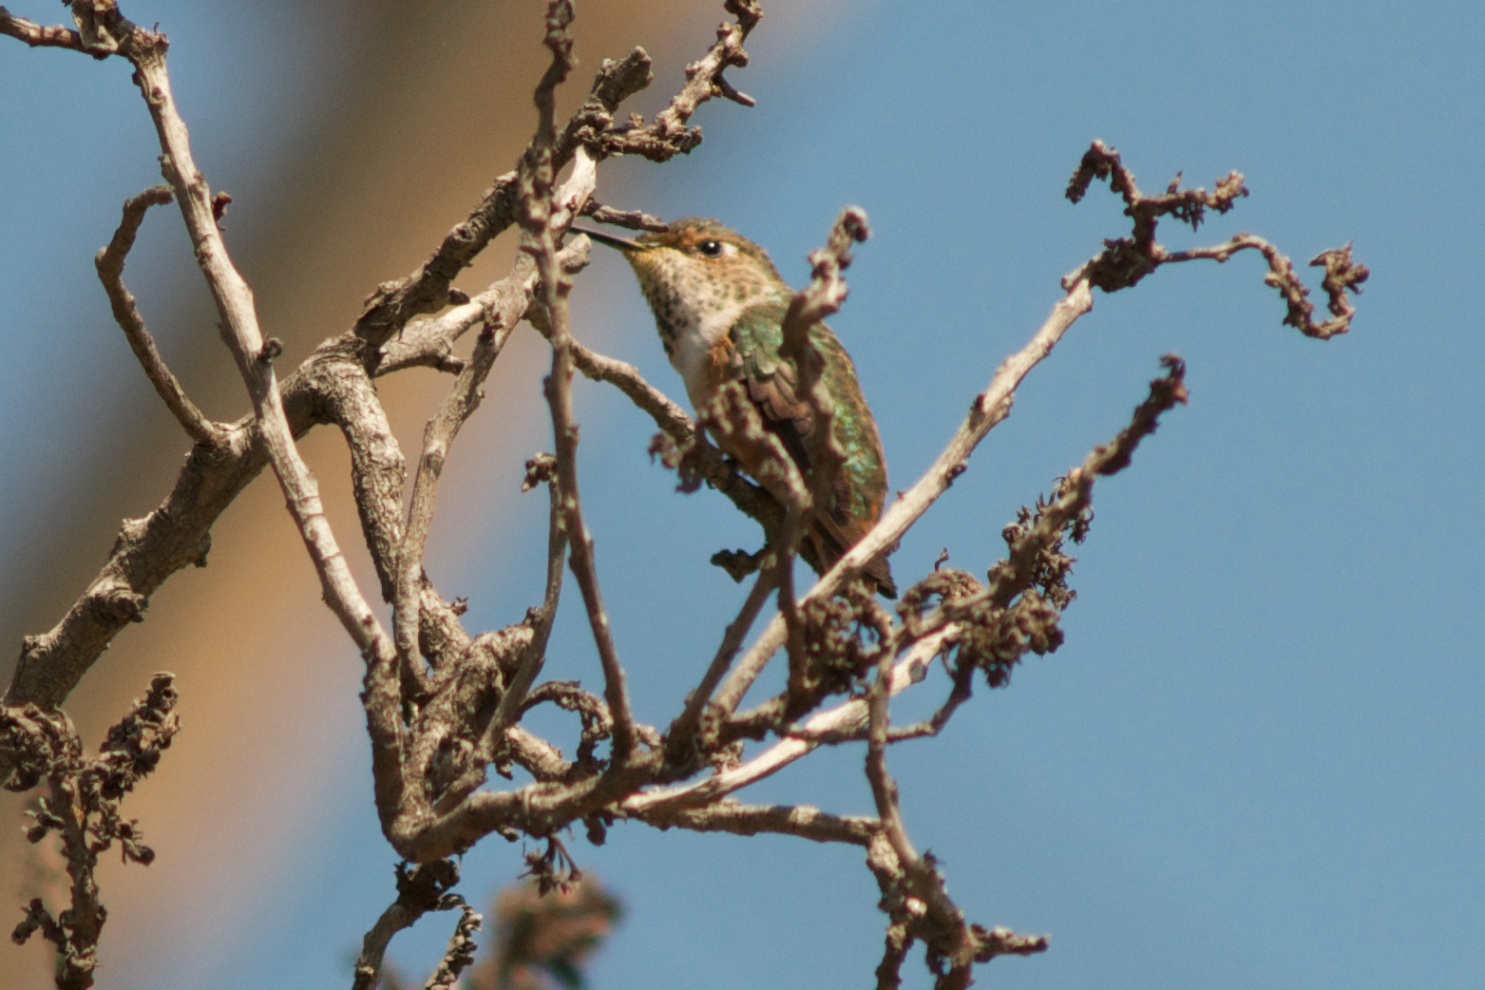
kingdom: Animalia
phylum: Chordata
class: Aves
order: Apodiformes
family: Trochilidae
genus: Selasphorus
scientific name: Selasphorus sasin
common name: Allen's hummingbird
